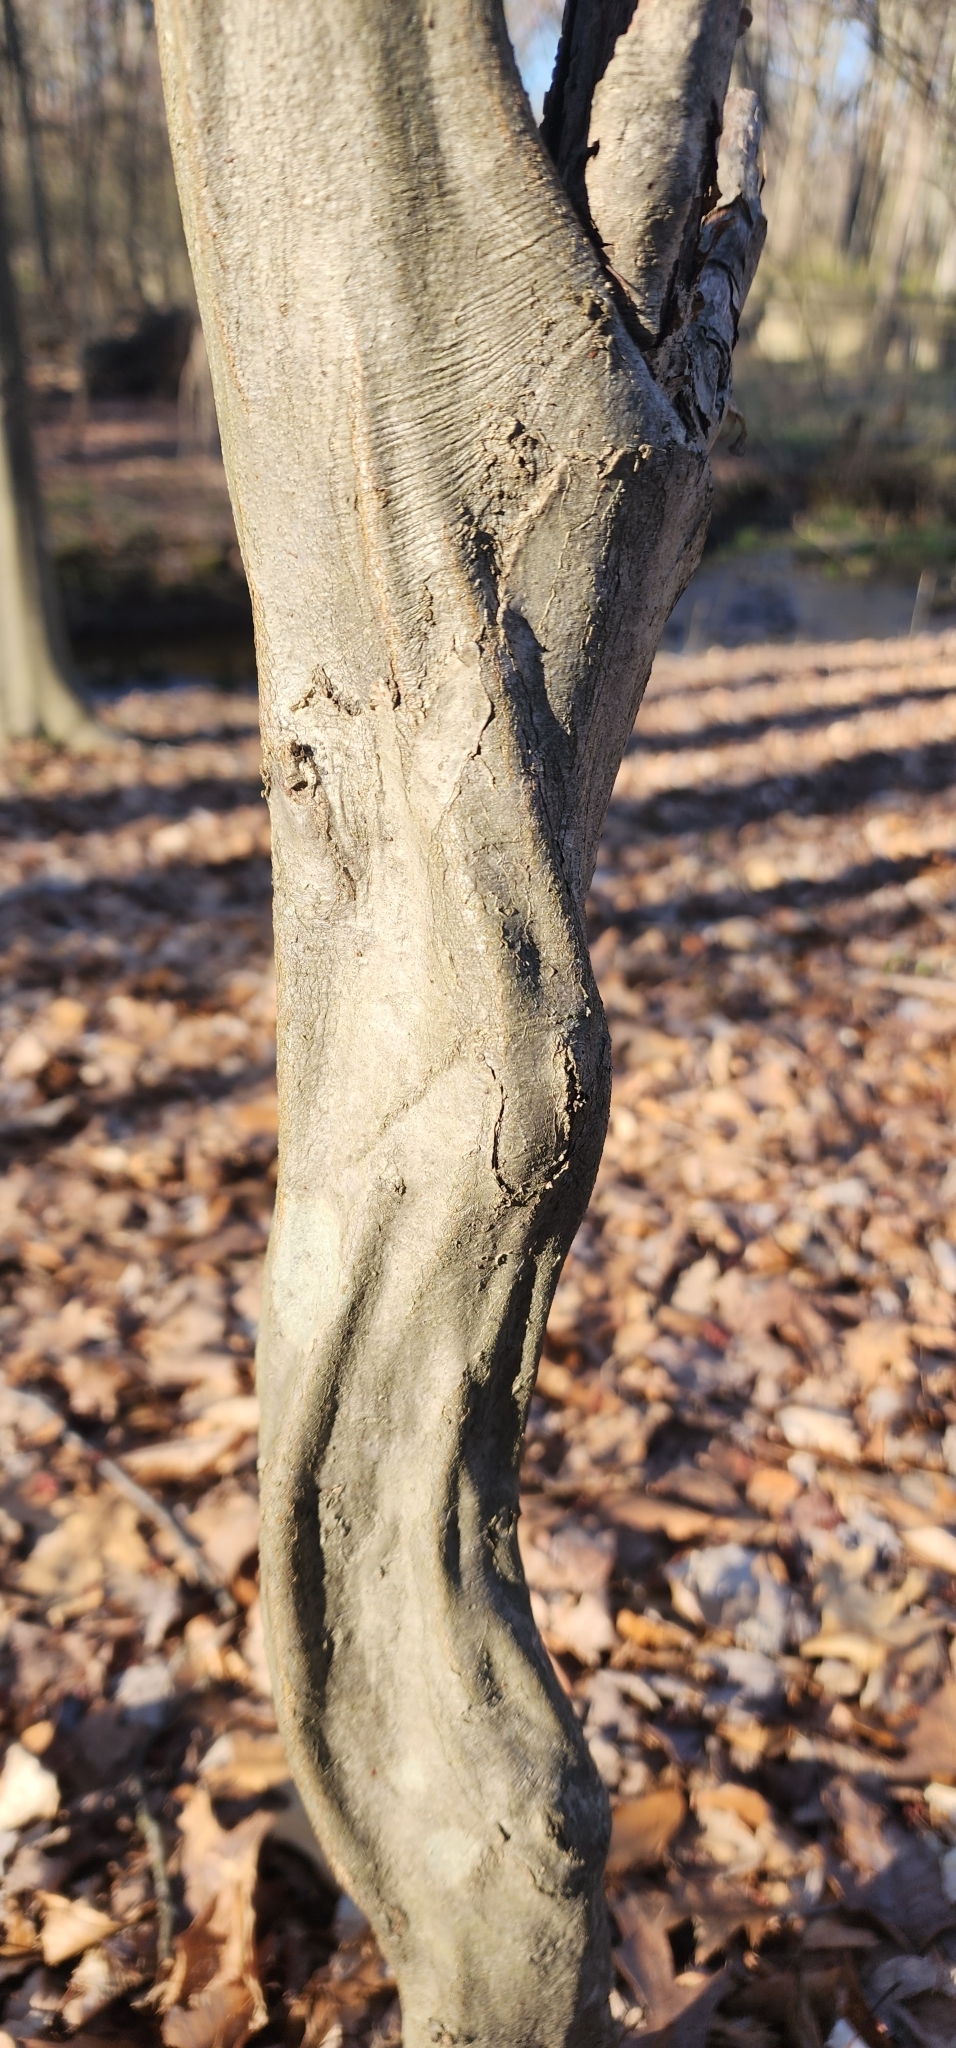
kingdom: Plantae
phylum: Tracheophyta
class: Magnoliopsida
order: Fagales
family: Betulaceae
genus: Carpinus
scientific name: Carpinus caroliniana
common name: American hornbeam
